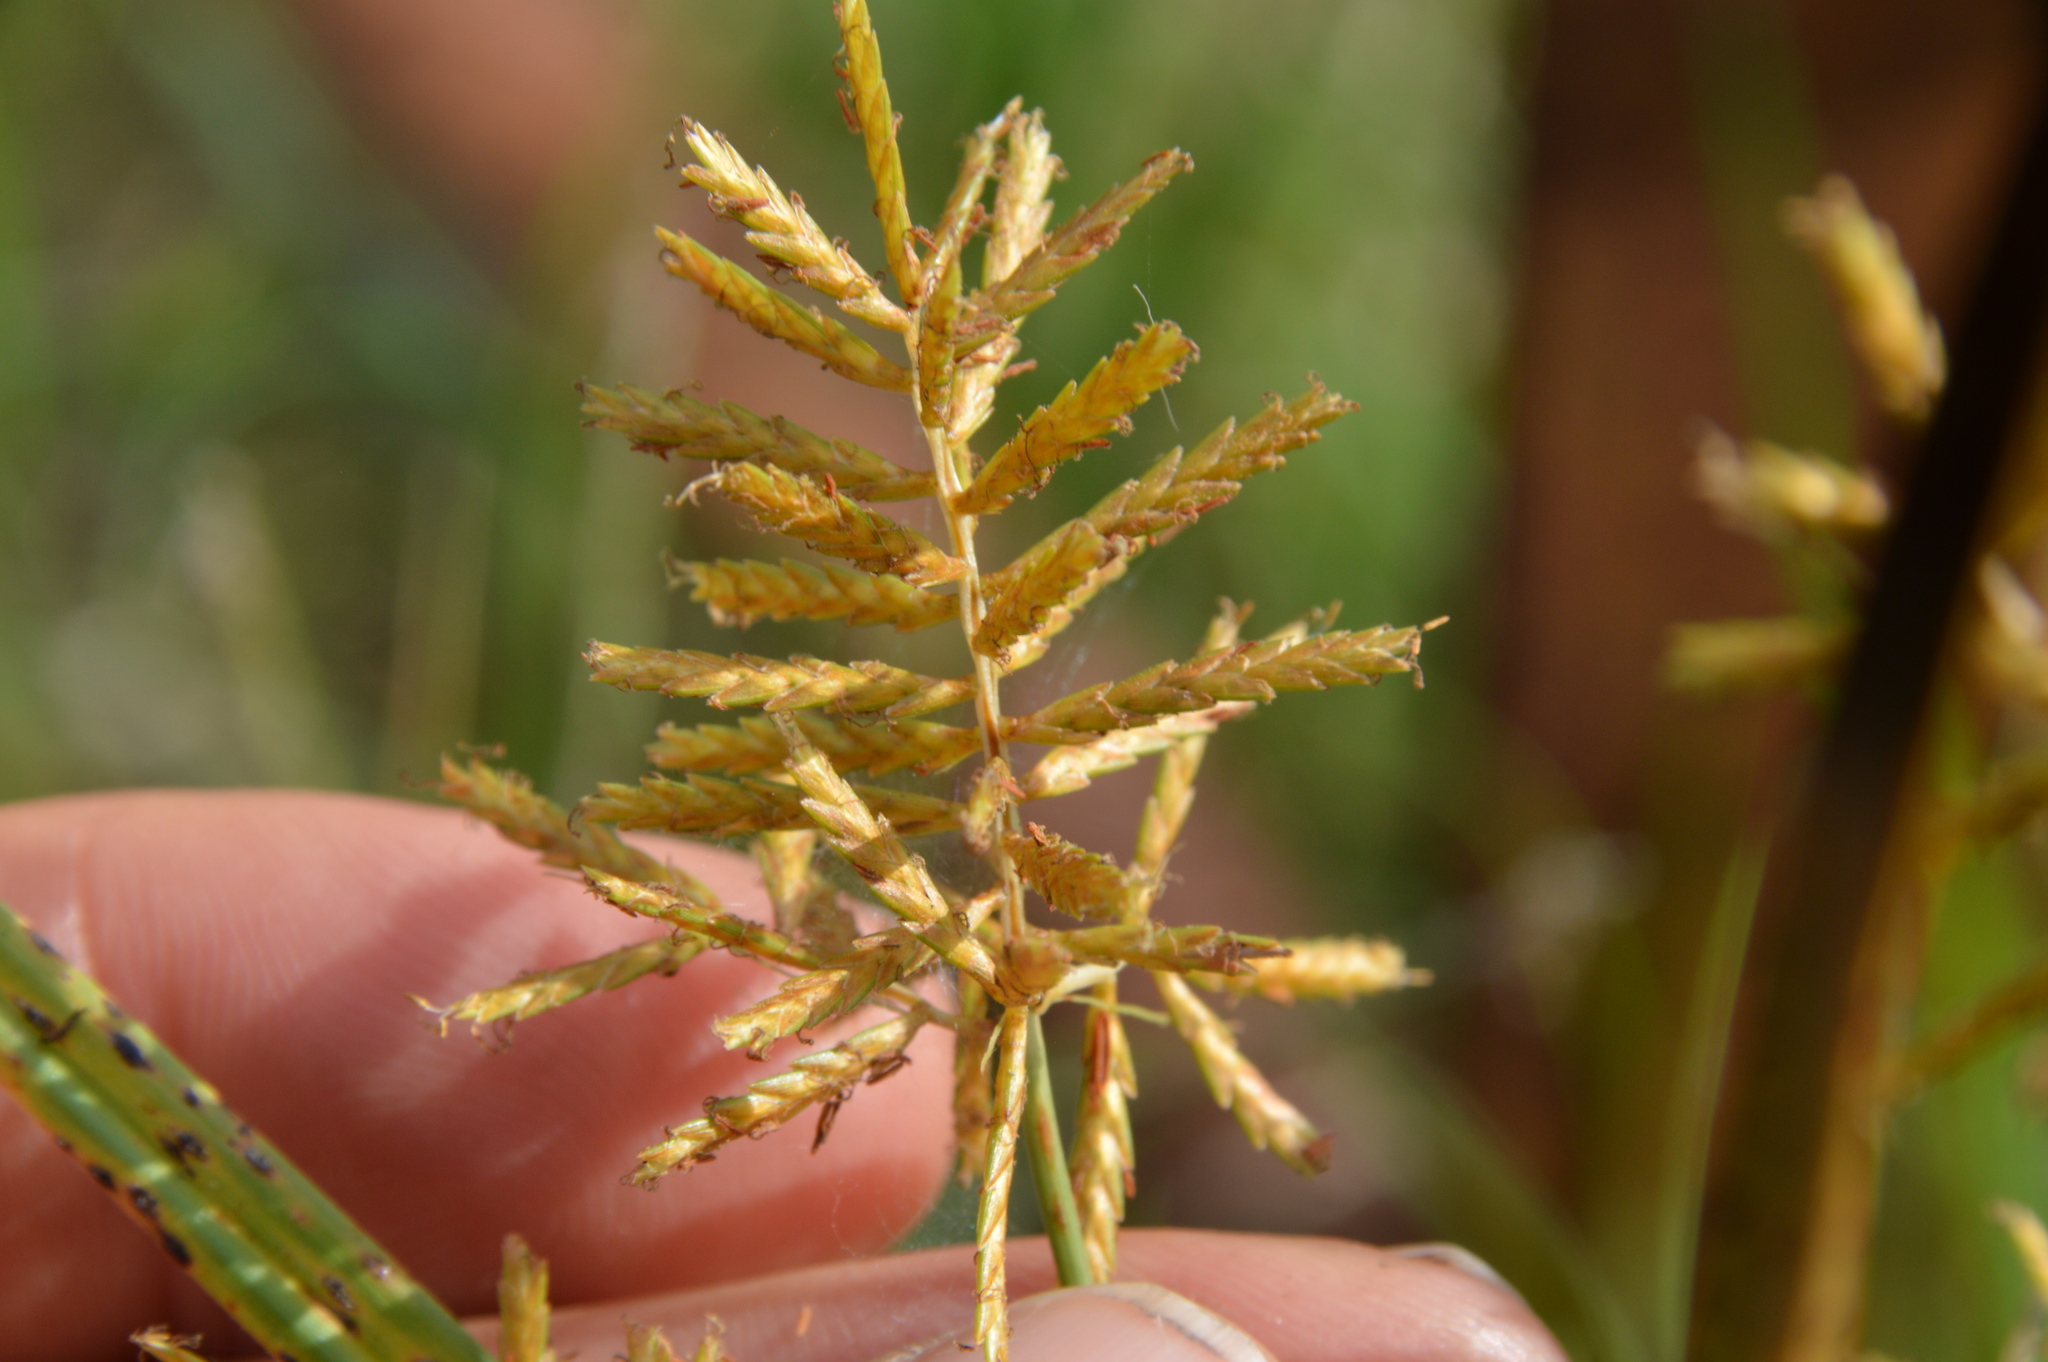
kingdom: Plantae
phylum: Tracheophyta
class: Liliopsida
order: Poales
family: Cyperaceae
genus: Cyperus
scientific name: Cyperus esculentus
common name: Yellow nutsedge
